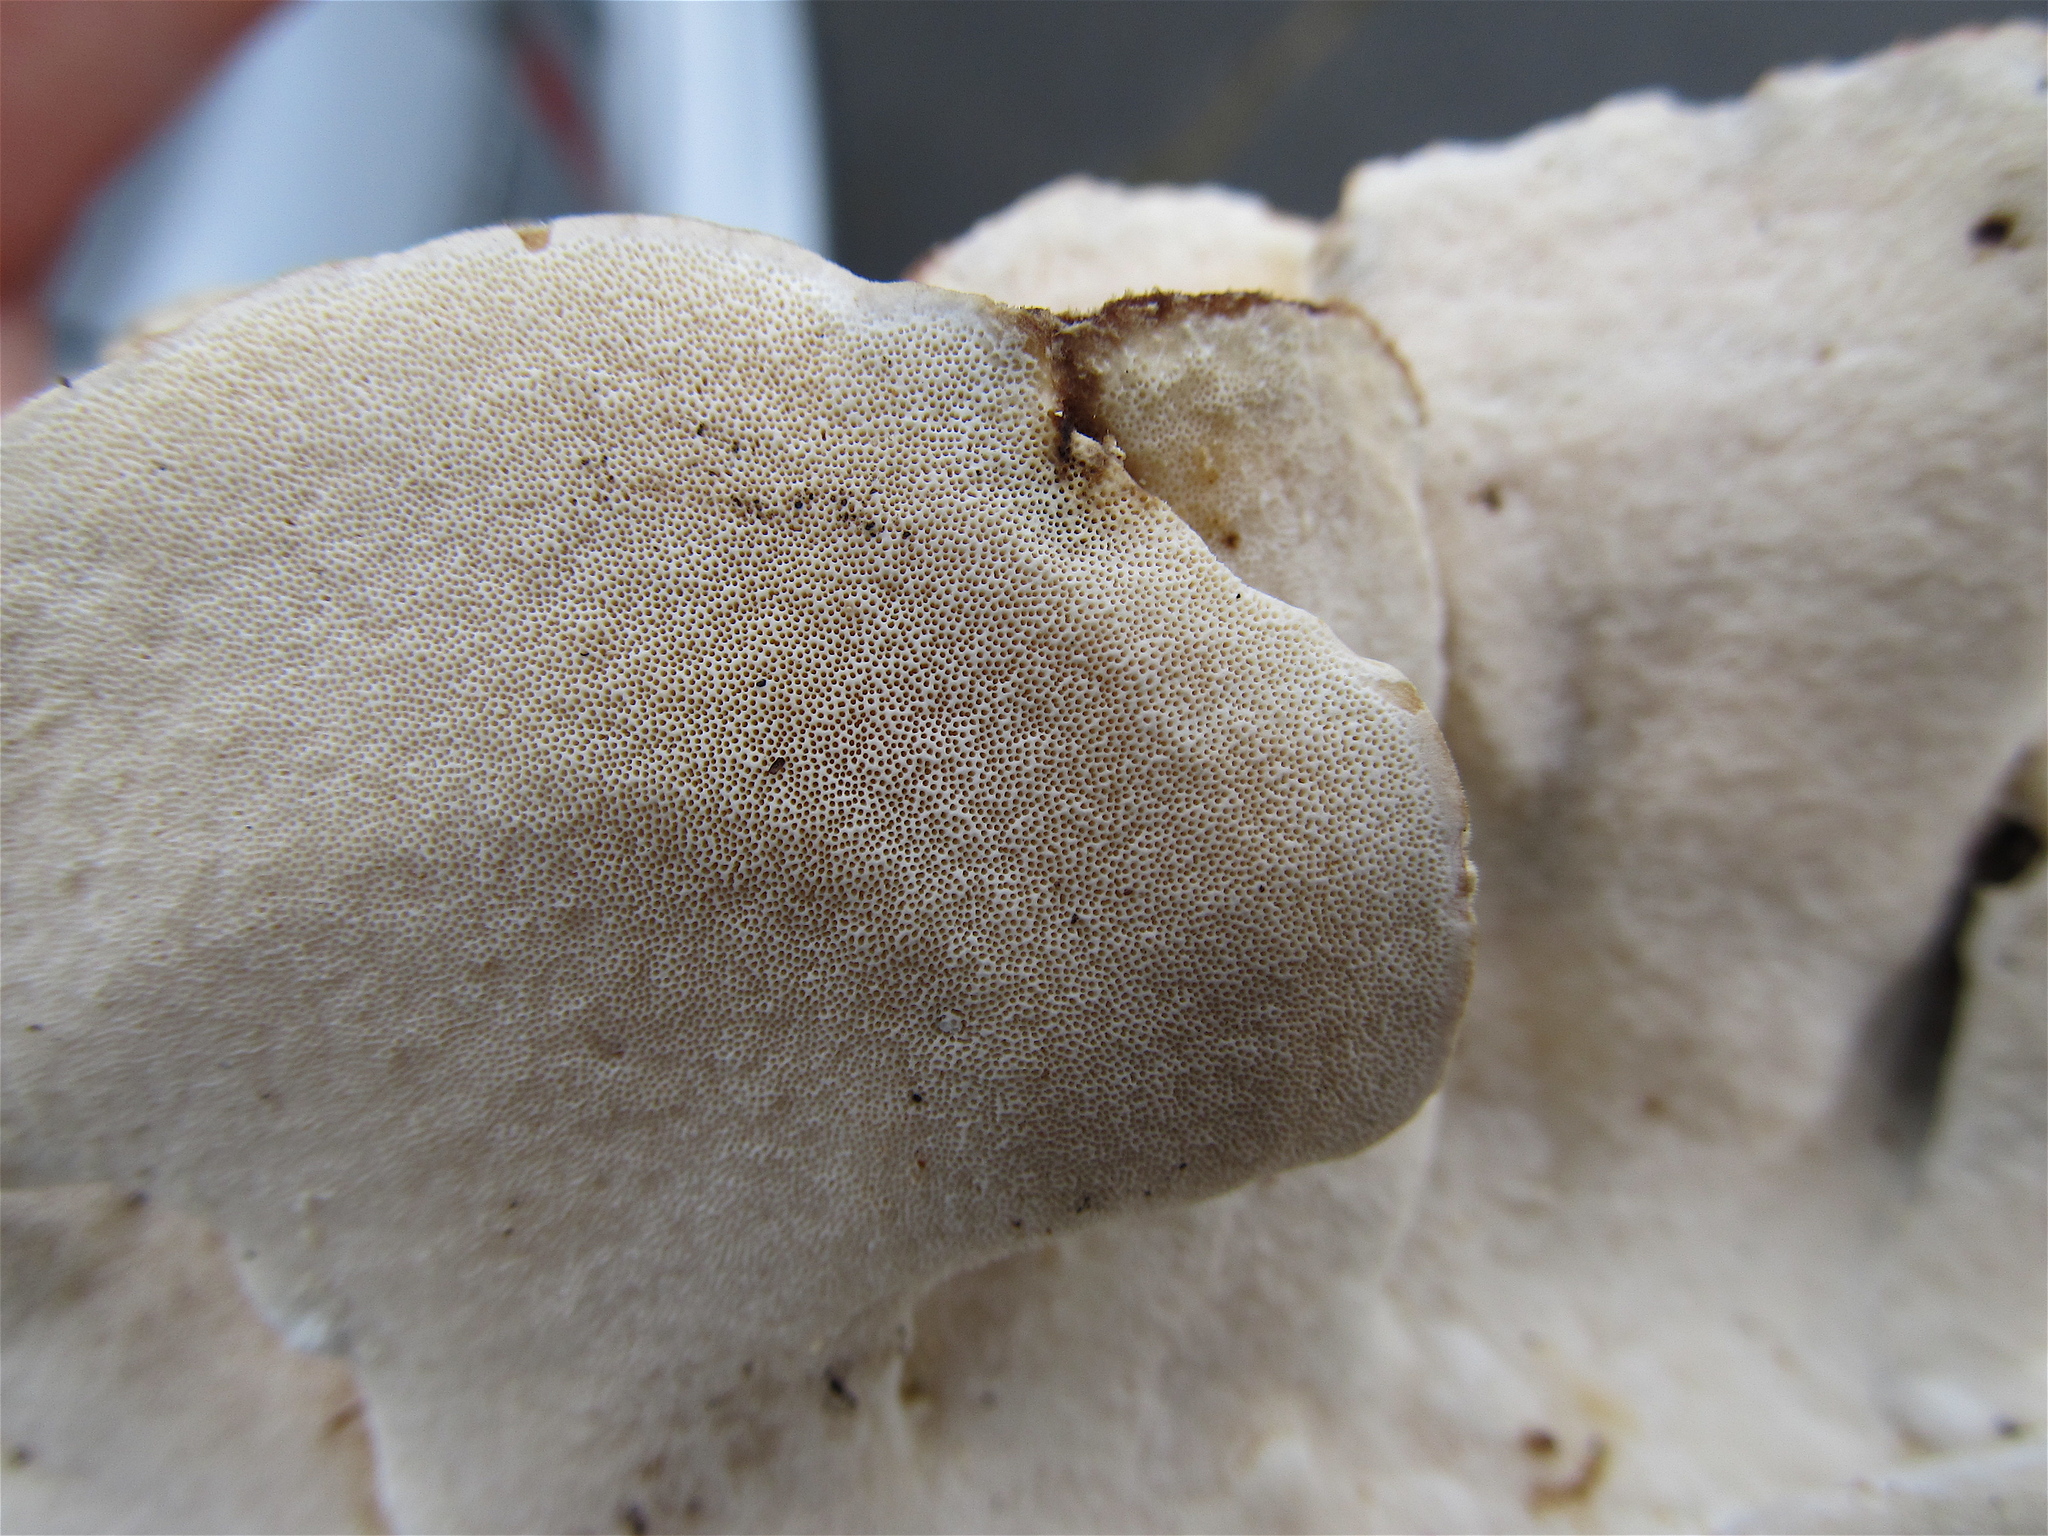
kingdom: Fungi
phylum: Basidiomycota
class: Agaricomycetes
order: Polyporales
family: Polyporaceae
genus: Trametes
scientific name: Trametes versicolor
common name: Turkeytail
